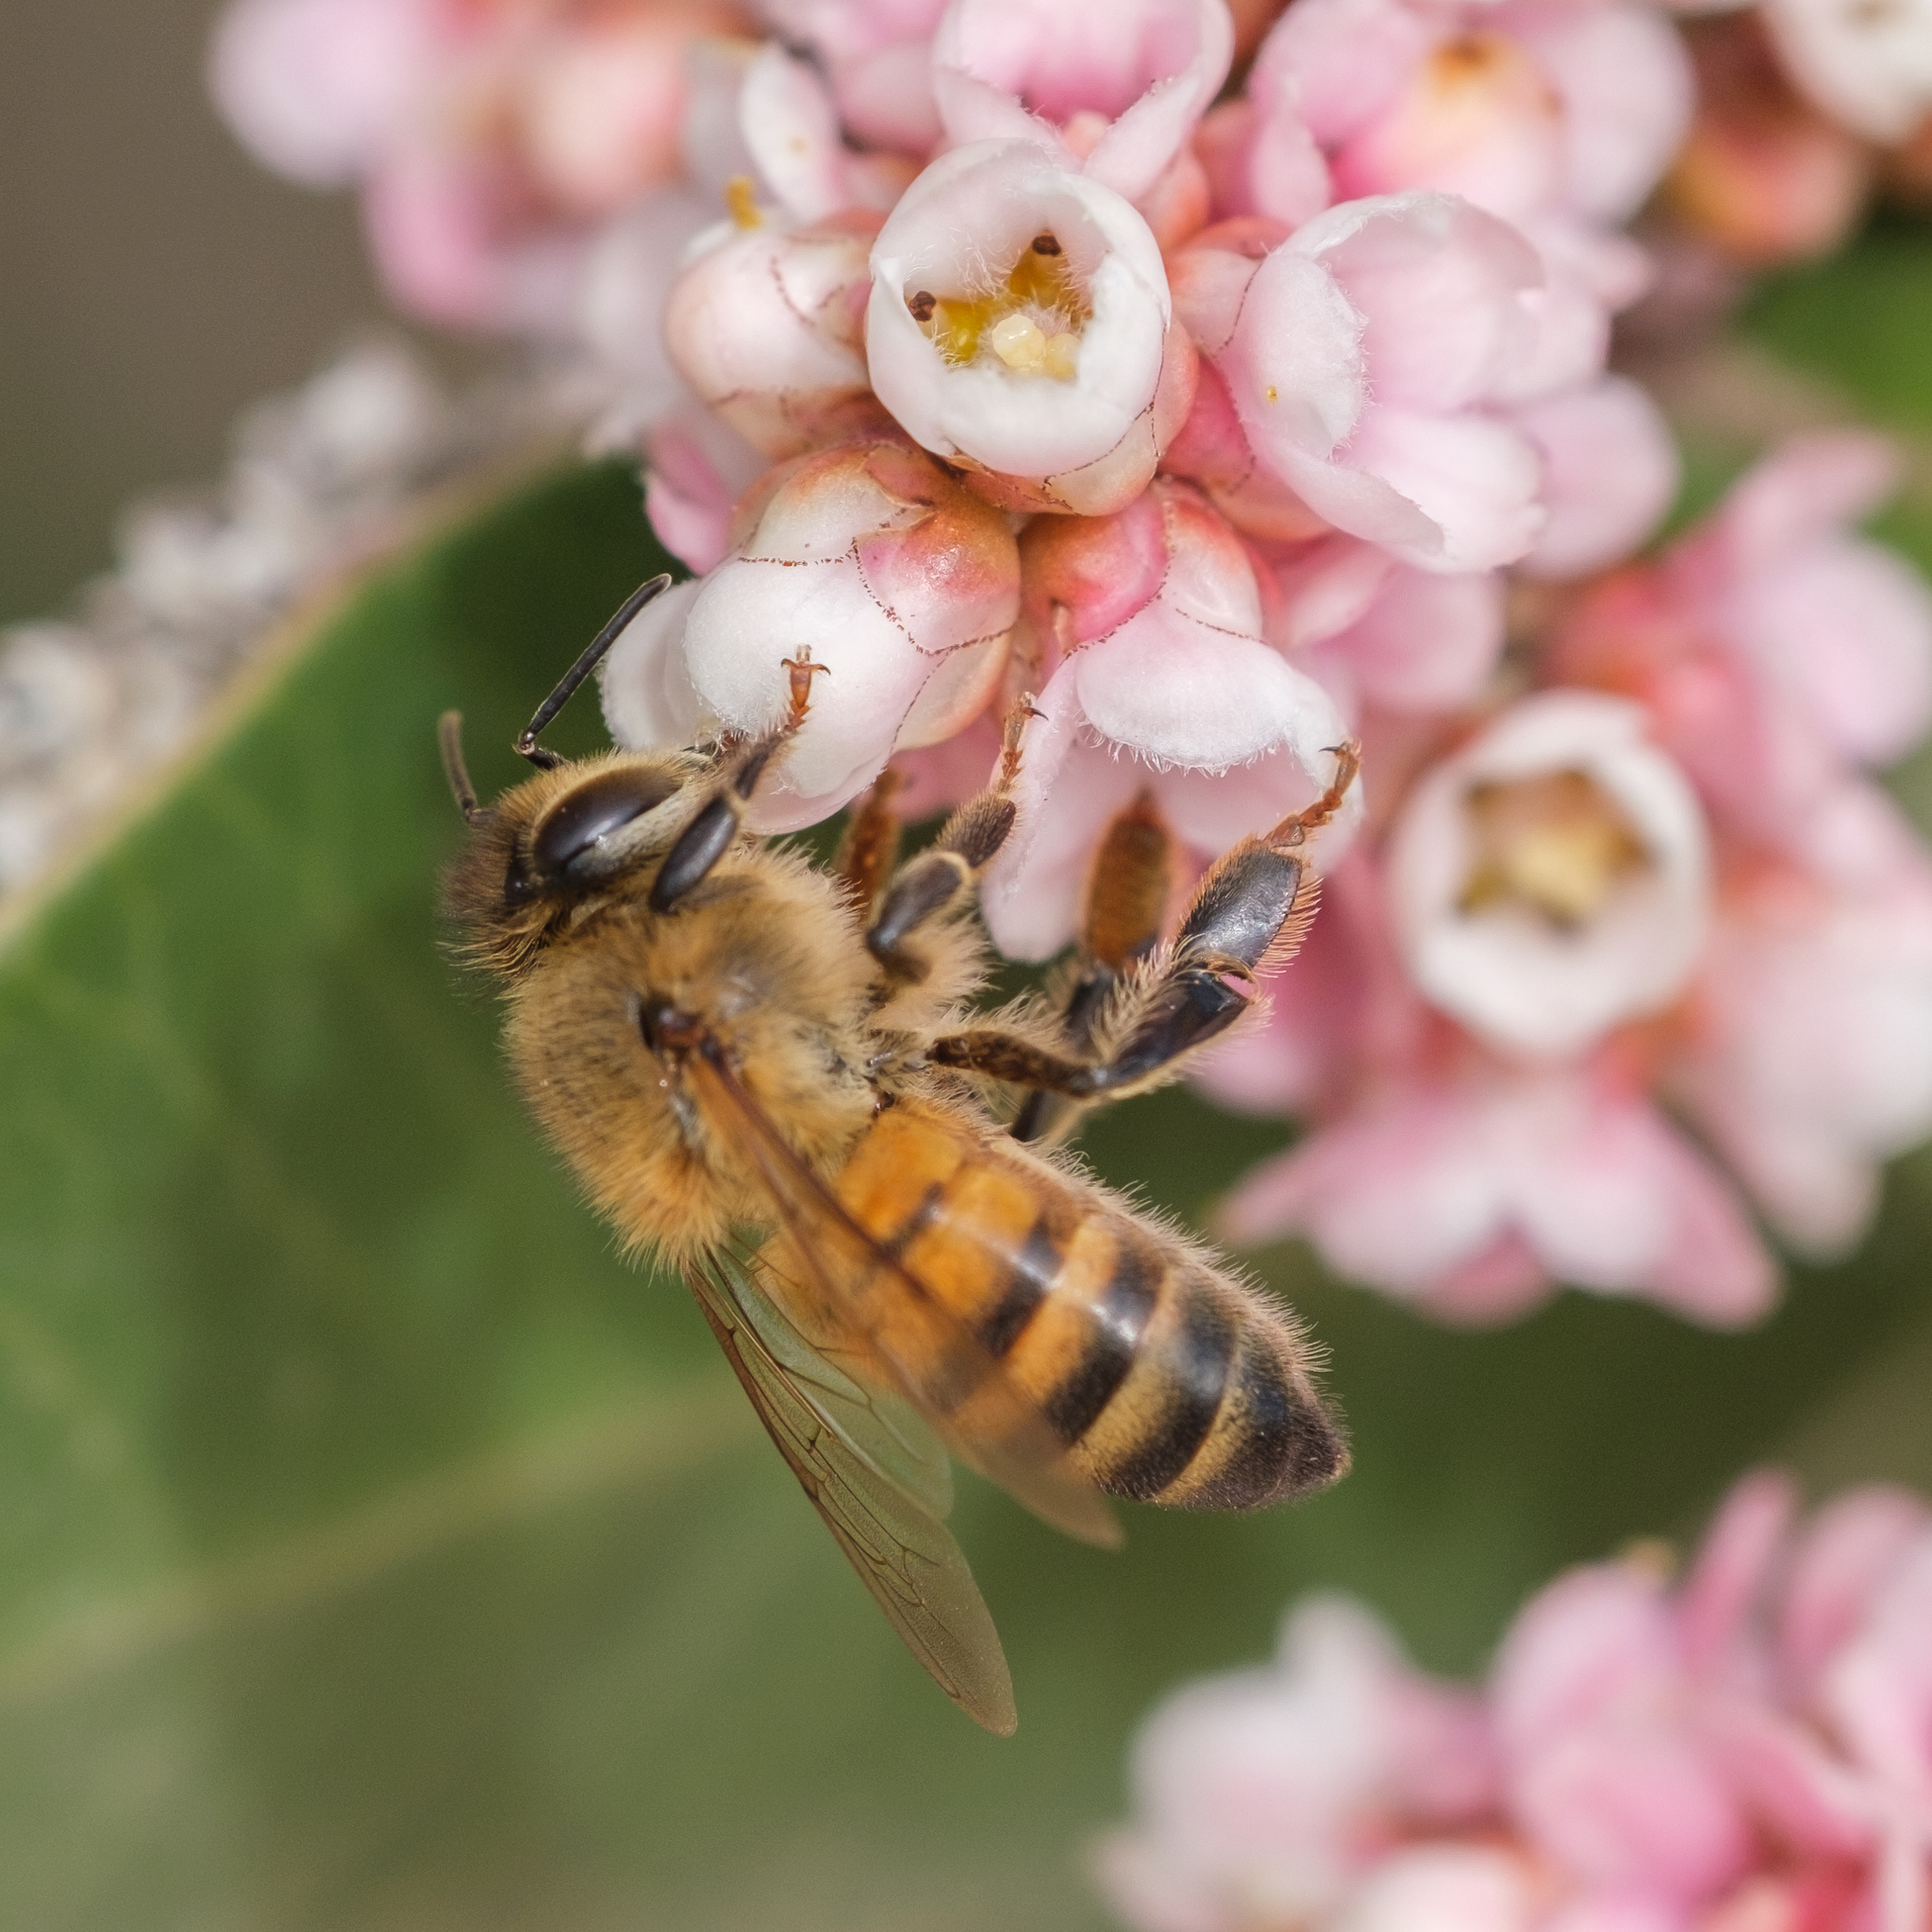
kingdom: Animalia
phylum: Arthropoda
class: Insecta
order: Hymenoptera
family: Apidae
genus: Apis
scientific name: Apis mellifera
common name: Honey bee
